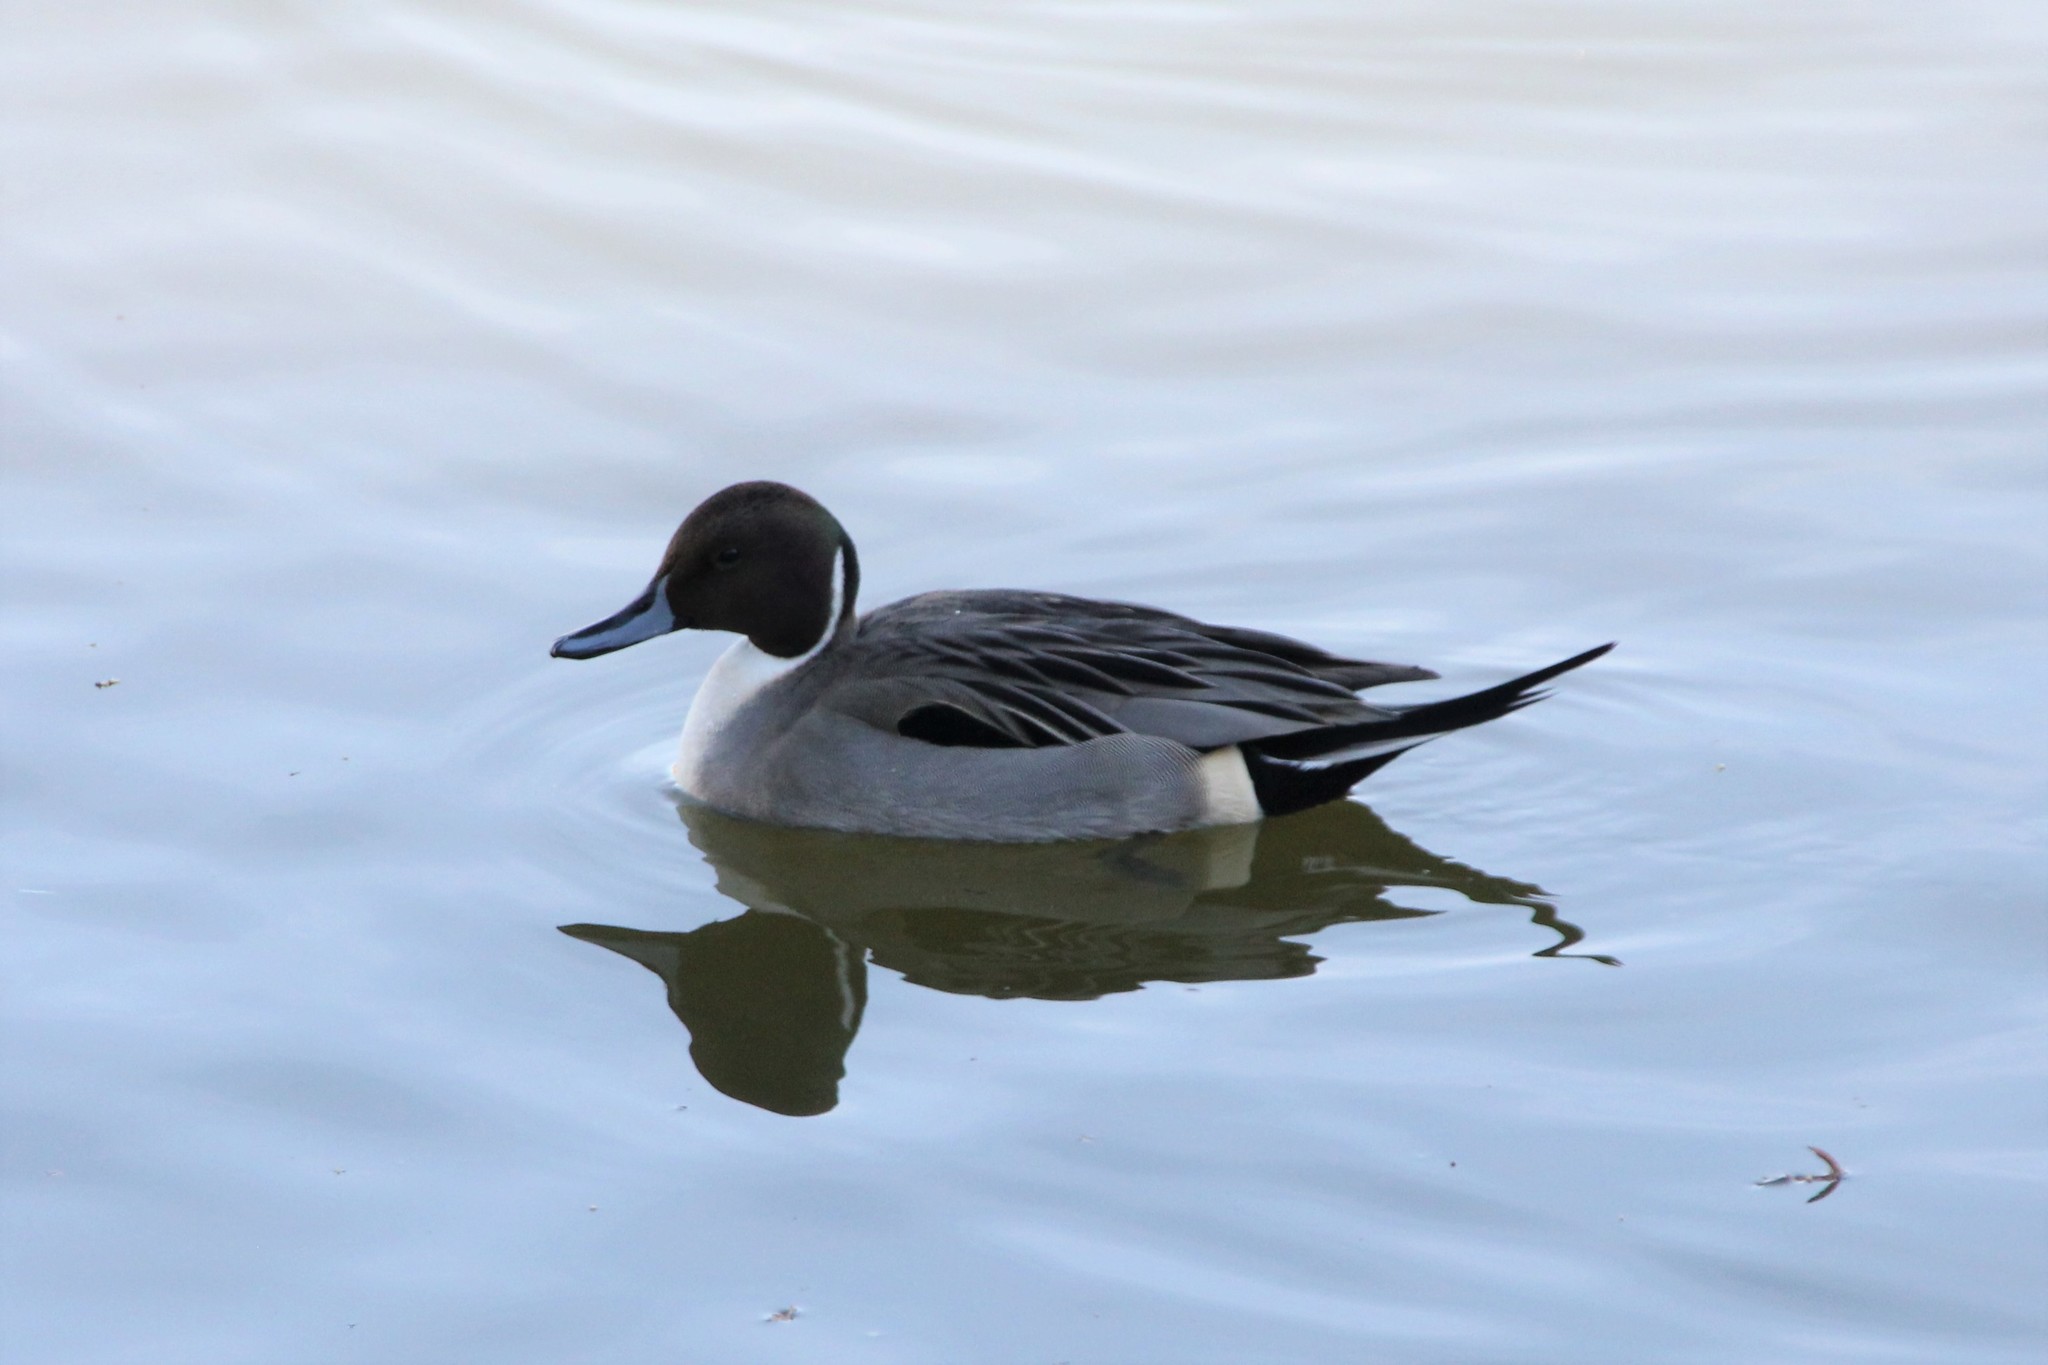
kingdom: Animalia
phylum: Chordata
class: Aves
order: Anseriformes
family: Anatidae
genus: Anas
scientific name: Anas acuta
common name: Northern pintail
